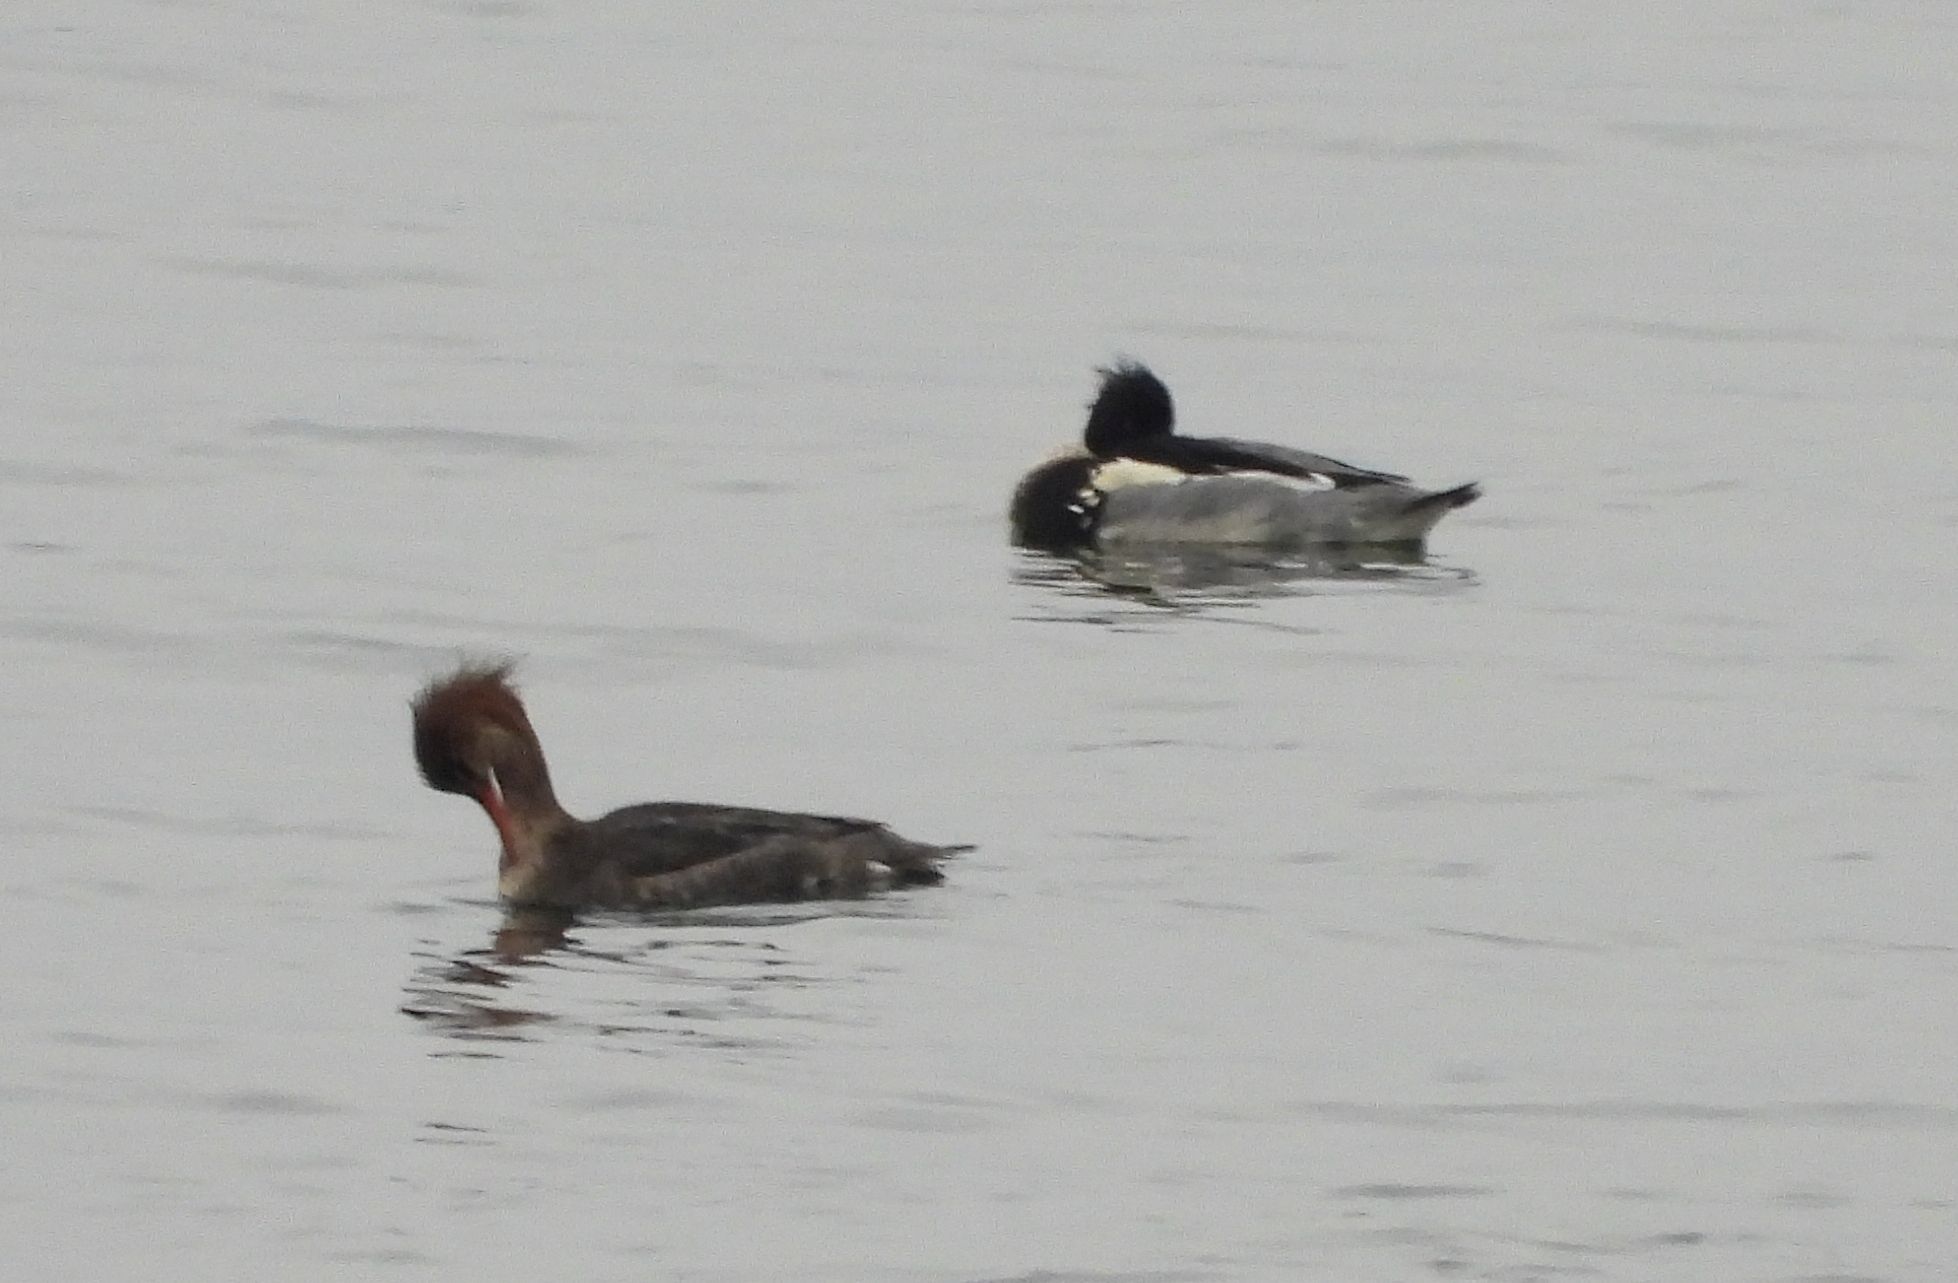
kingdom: Animalia
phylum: Chordata
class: Aves
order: Anseriformes
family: Anatidae
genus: Mergus
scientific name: Mergus serrator
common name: Red-breasted merganser
